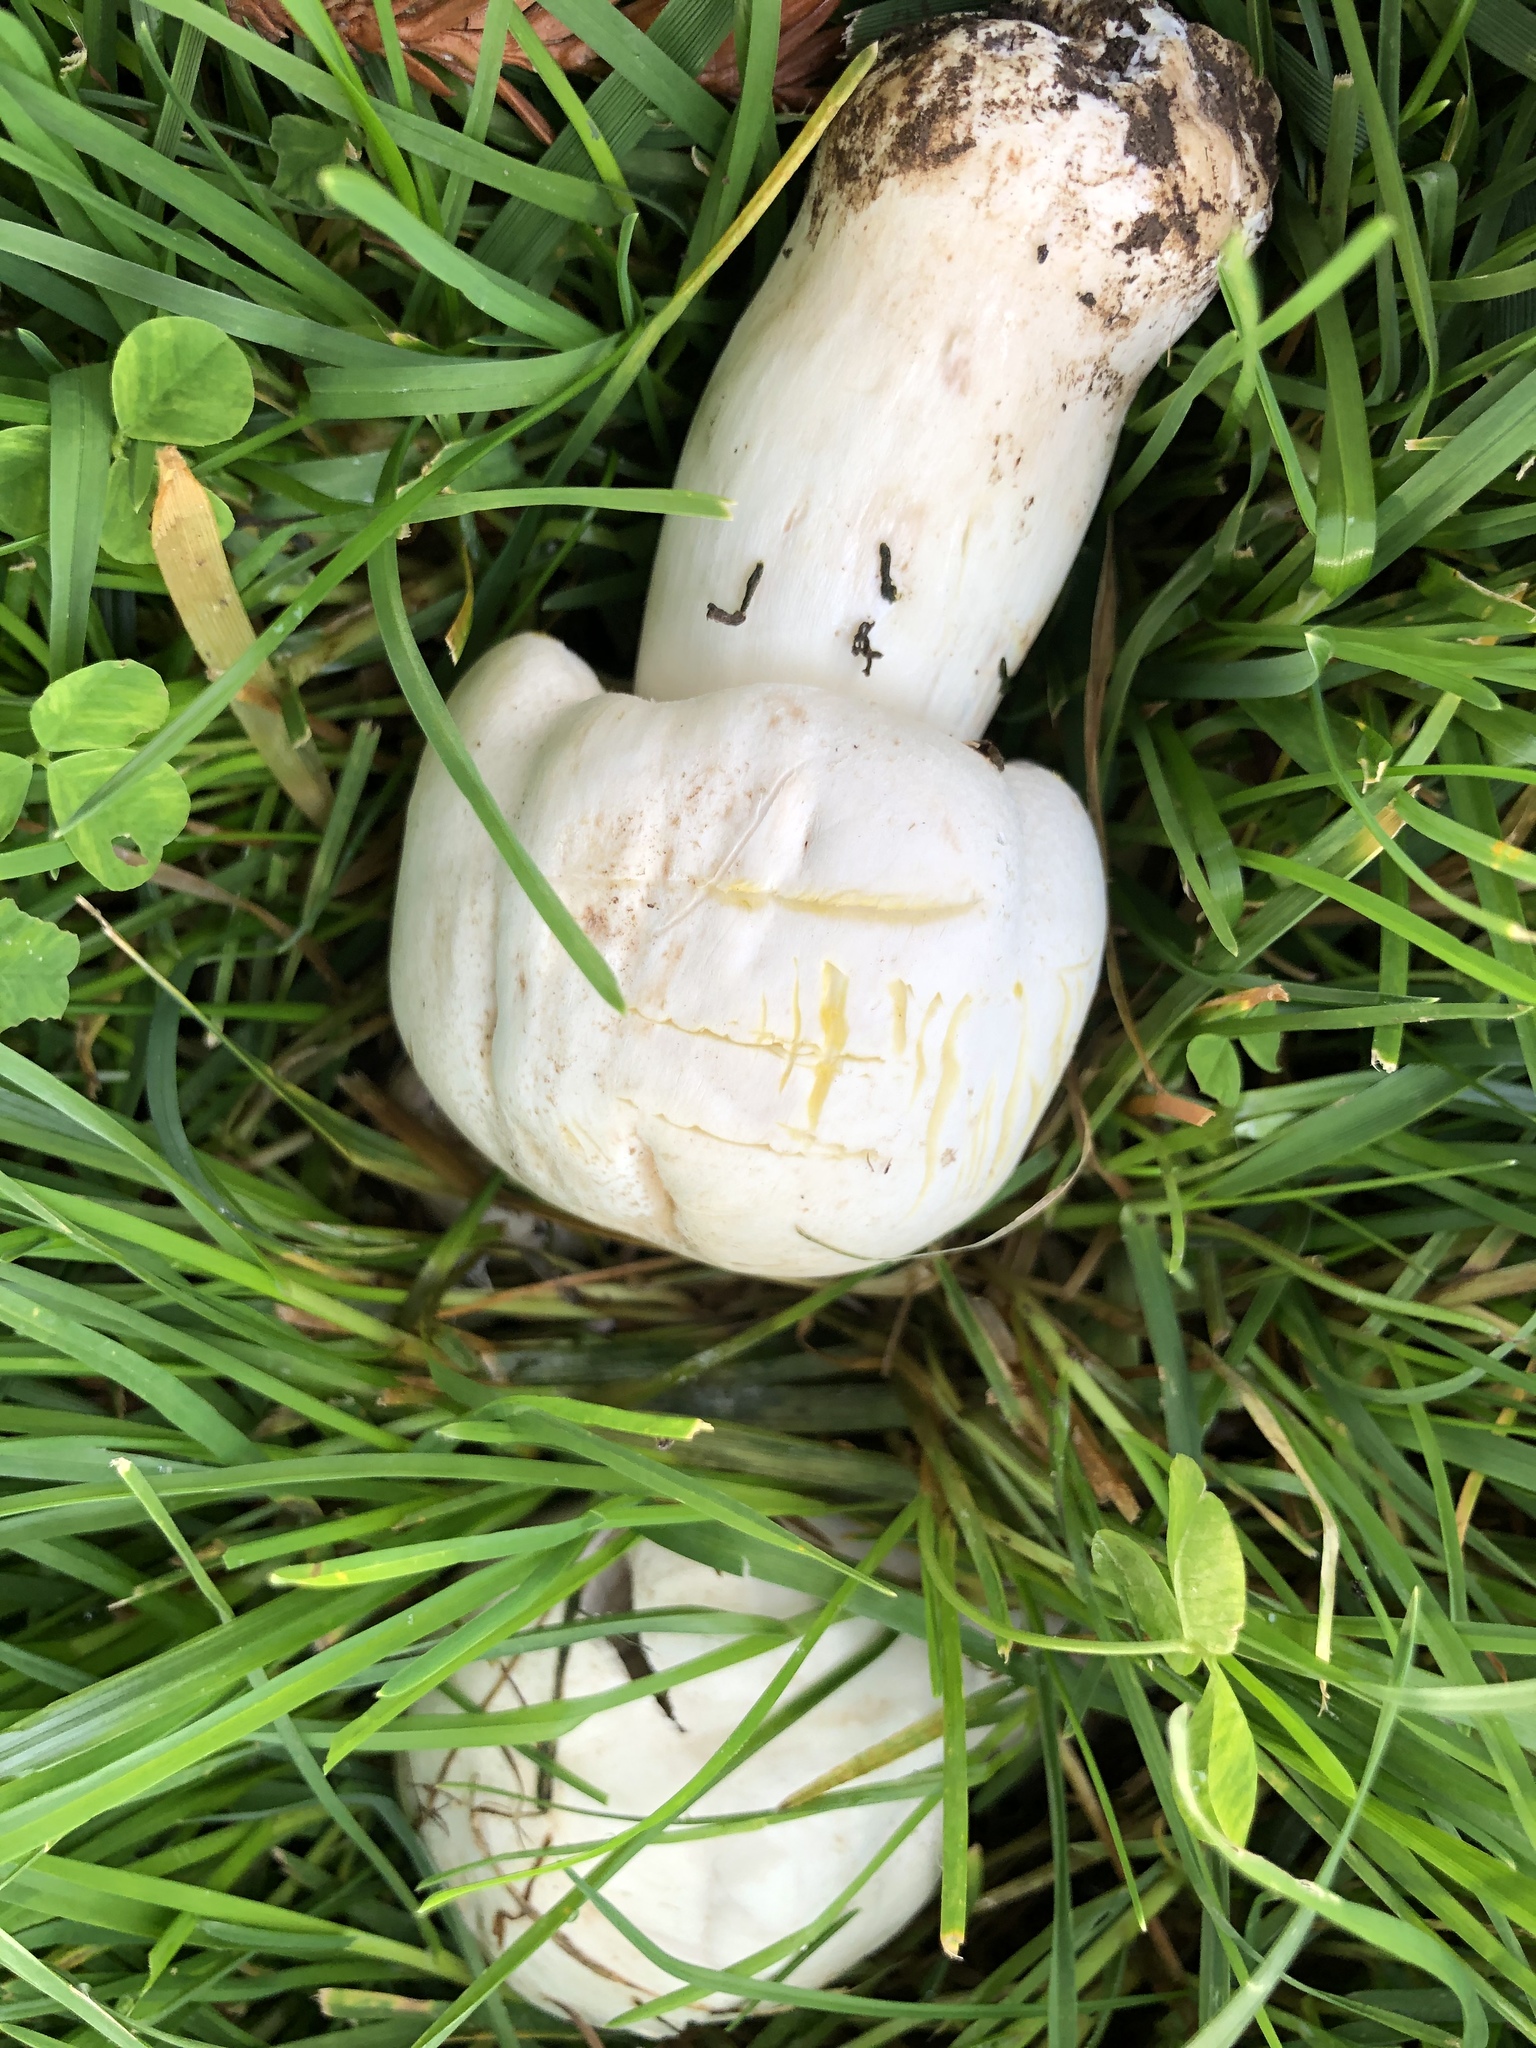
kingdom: Fungi
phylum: Basidiomycota
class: Agaricomycetes
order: Agaricales
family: Agaricaceae
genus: Agaricus
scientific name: Agaricus xanthodermus
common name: Yellow stainer
